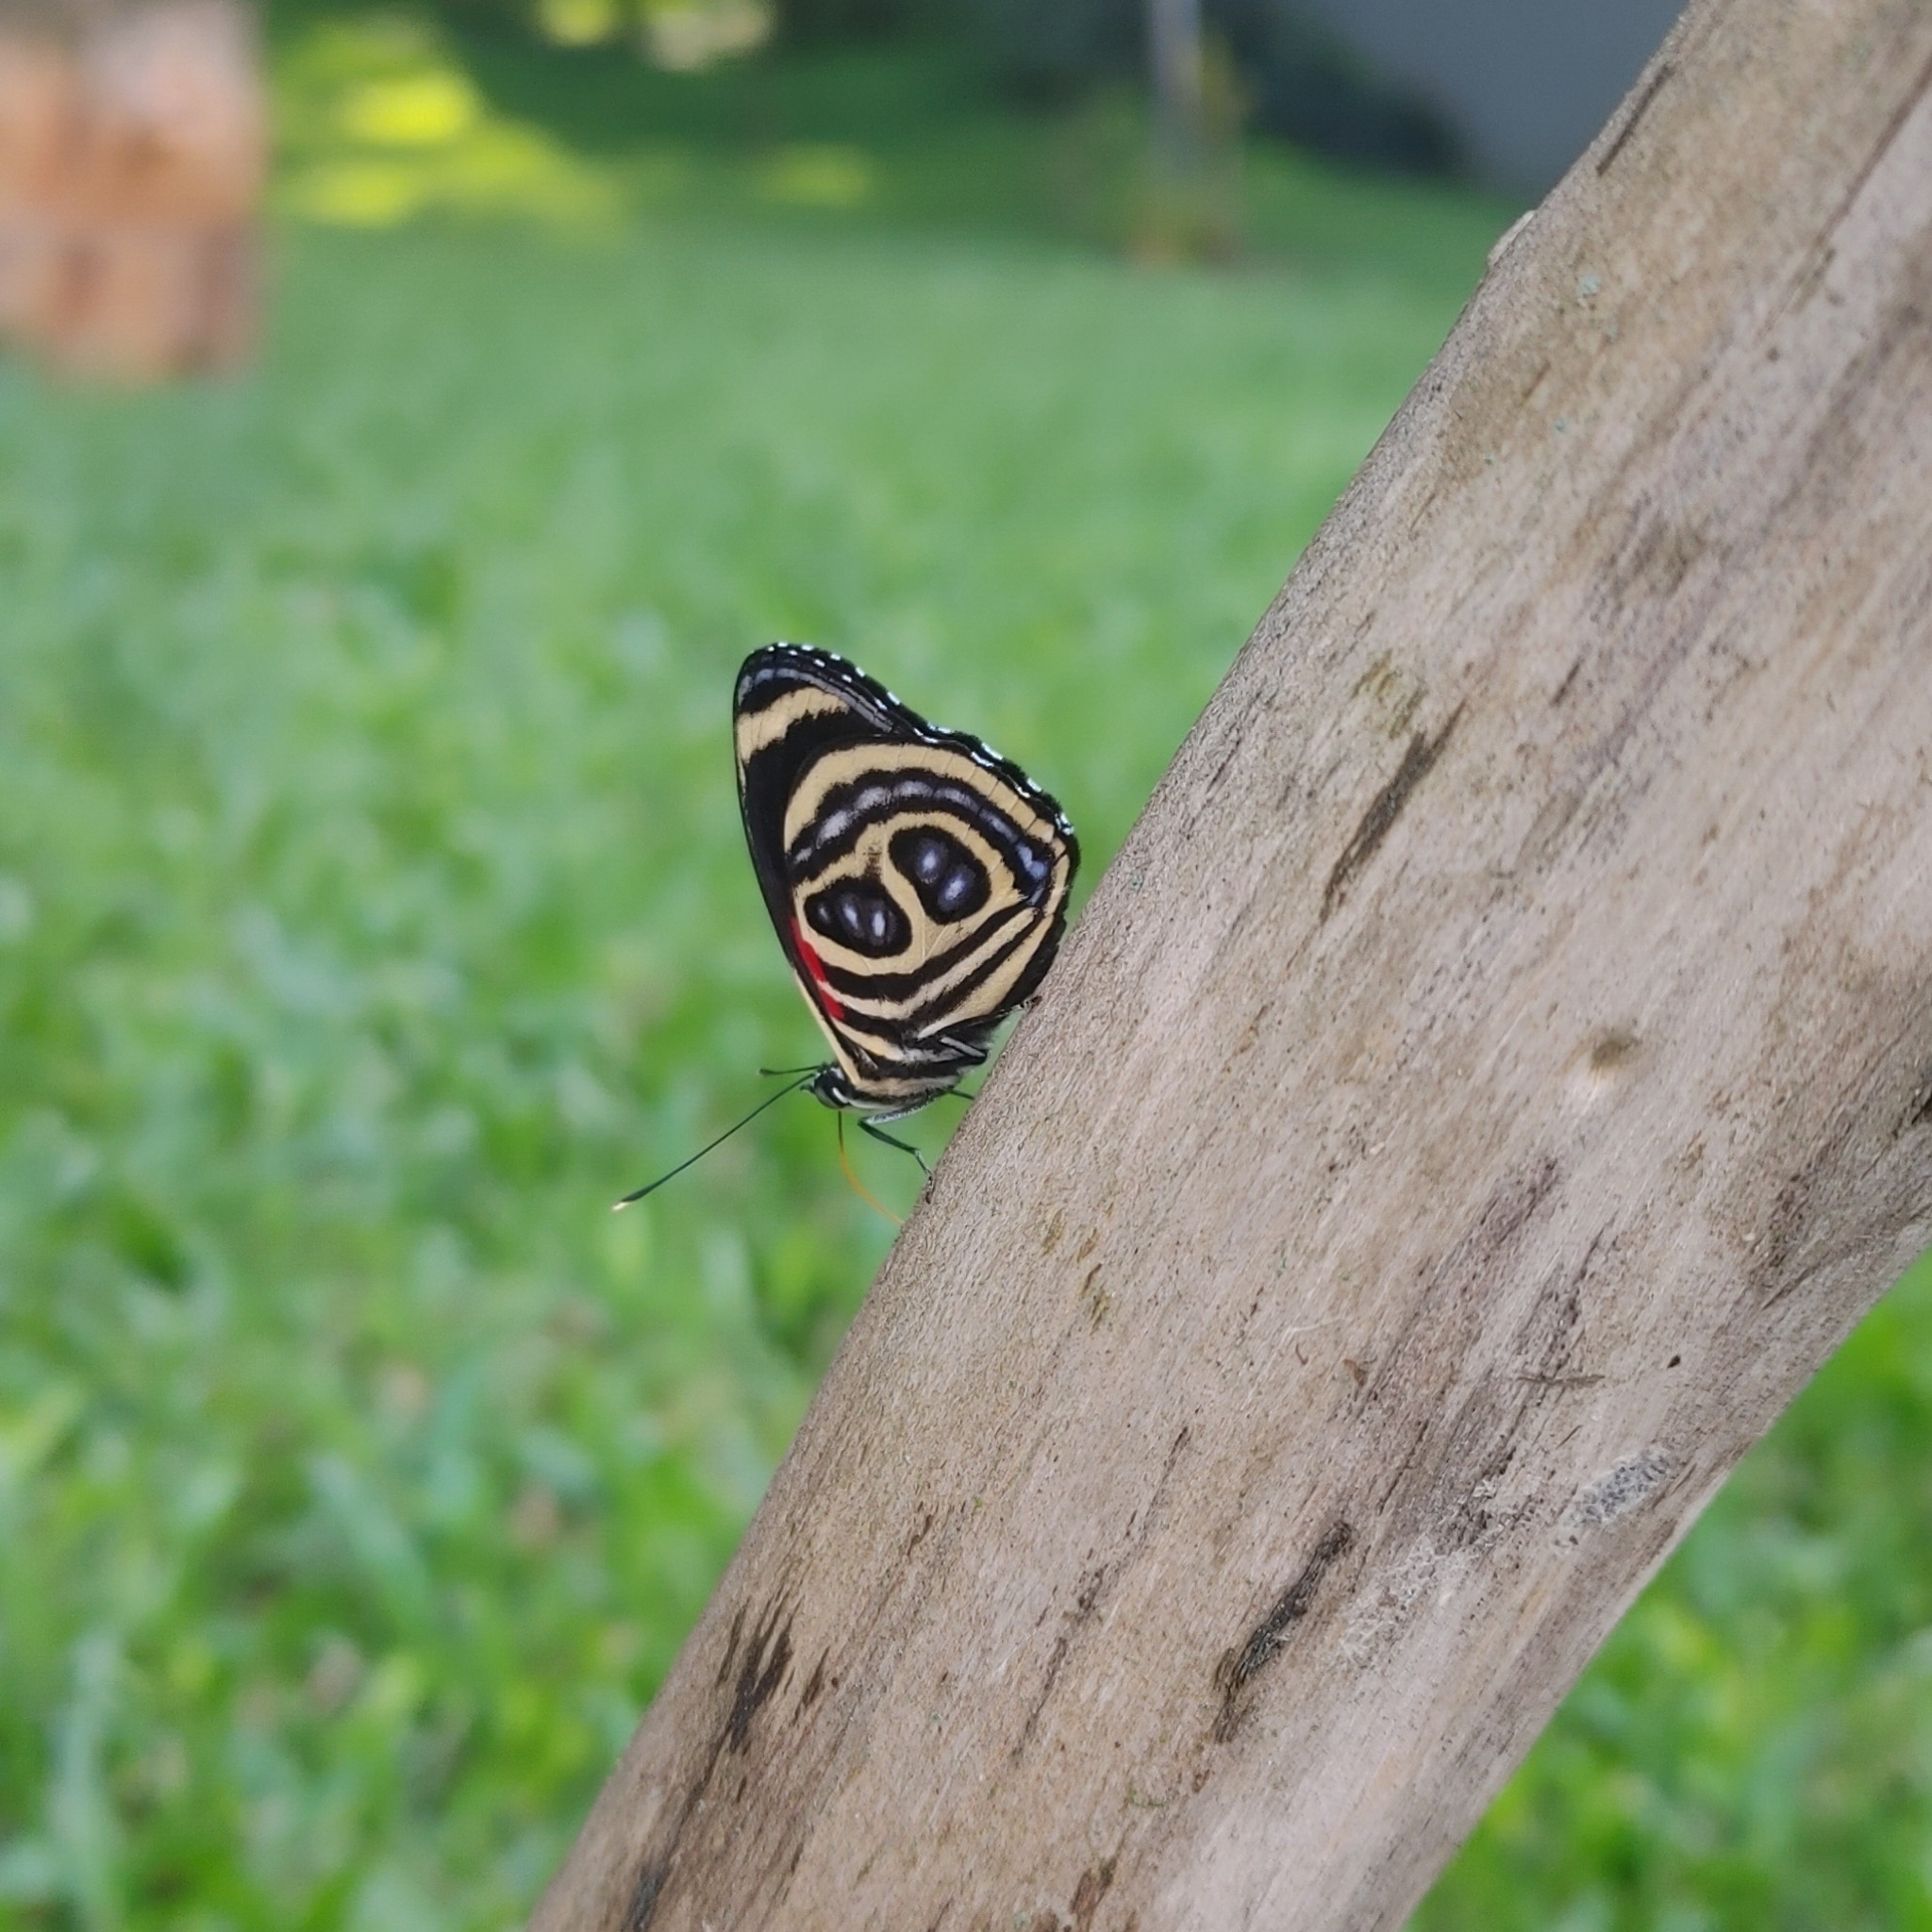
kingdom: Animalia
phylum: Arthropoda
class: Insecta
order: Lepidoptera
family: Nymphalidae
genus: Catagramma
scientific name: Catagramma pygas
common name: Godart's numberwing
